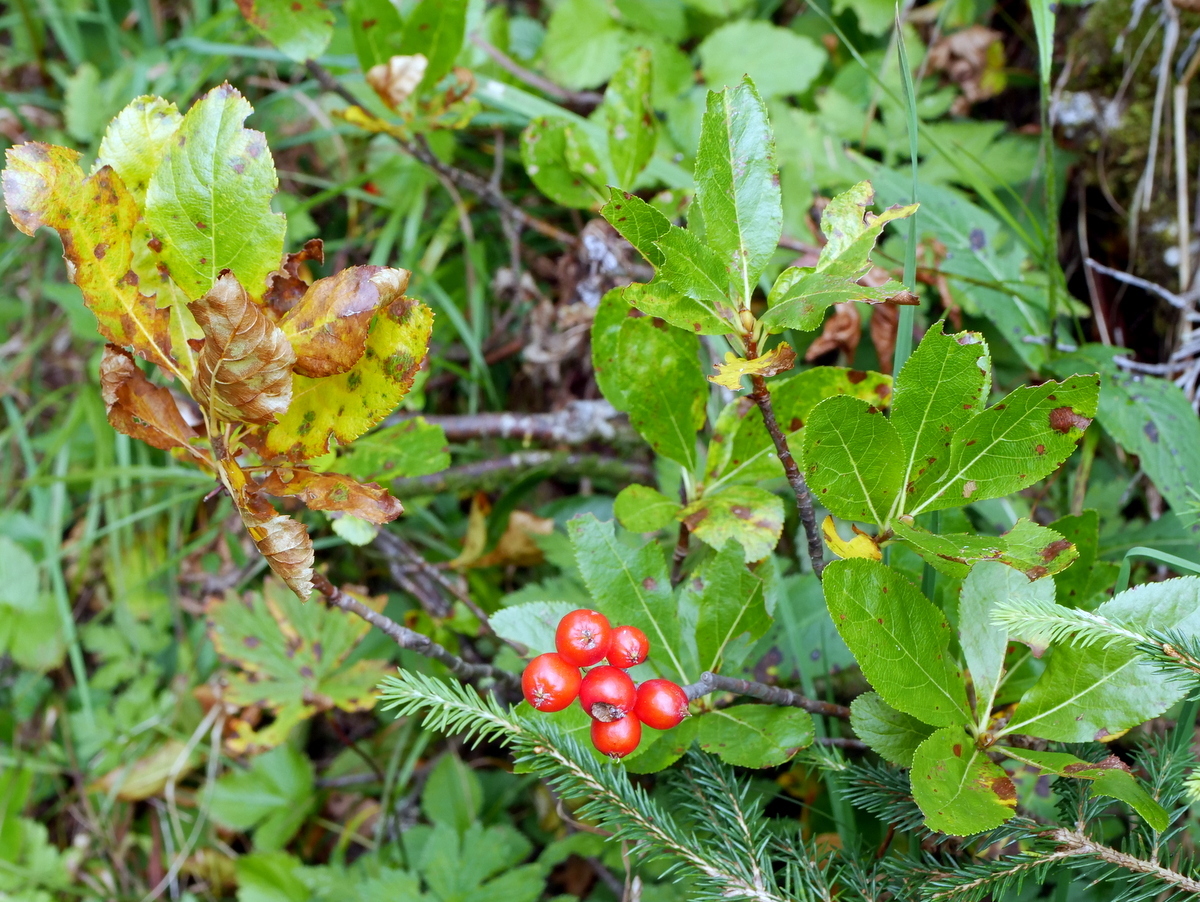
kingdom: Plantae
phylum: Tracheophyta
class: Magnoliopsida
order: Rosales
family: Rosaceae
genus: Chamaemespilus
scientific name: Chamaemespilus alpina
